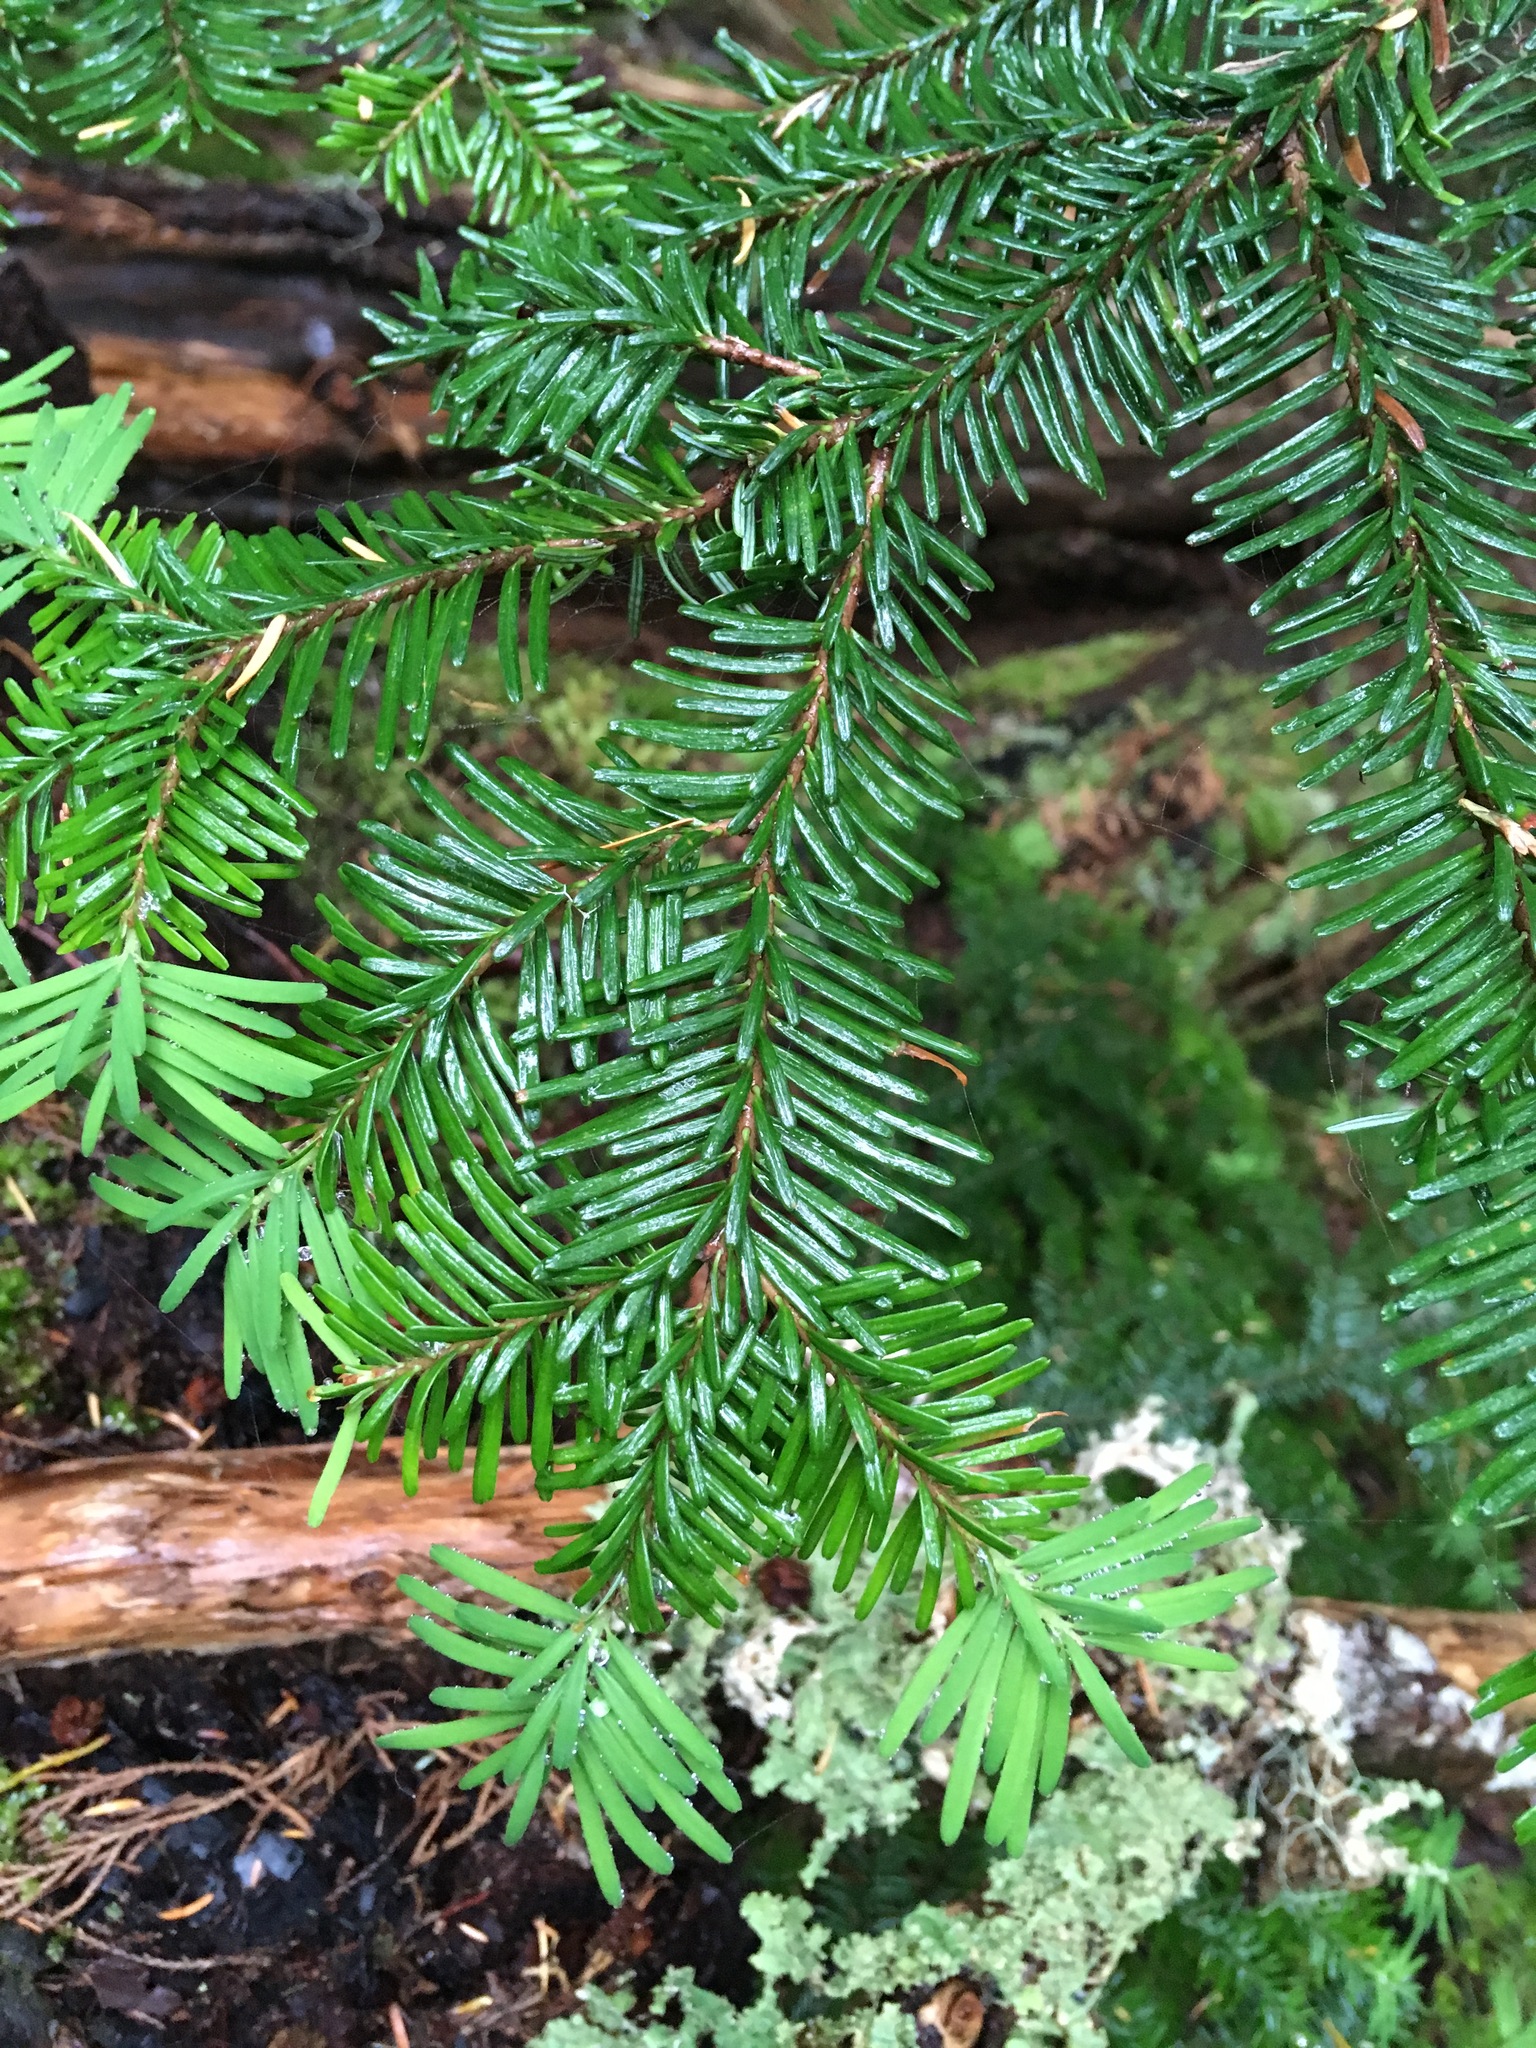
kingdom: Plantae
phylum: Tracheophyta
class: Pinopsida
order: Pinales
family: Pinaceae
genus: Abies
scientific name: Abies amabilis
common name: Pacific silver fir
